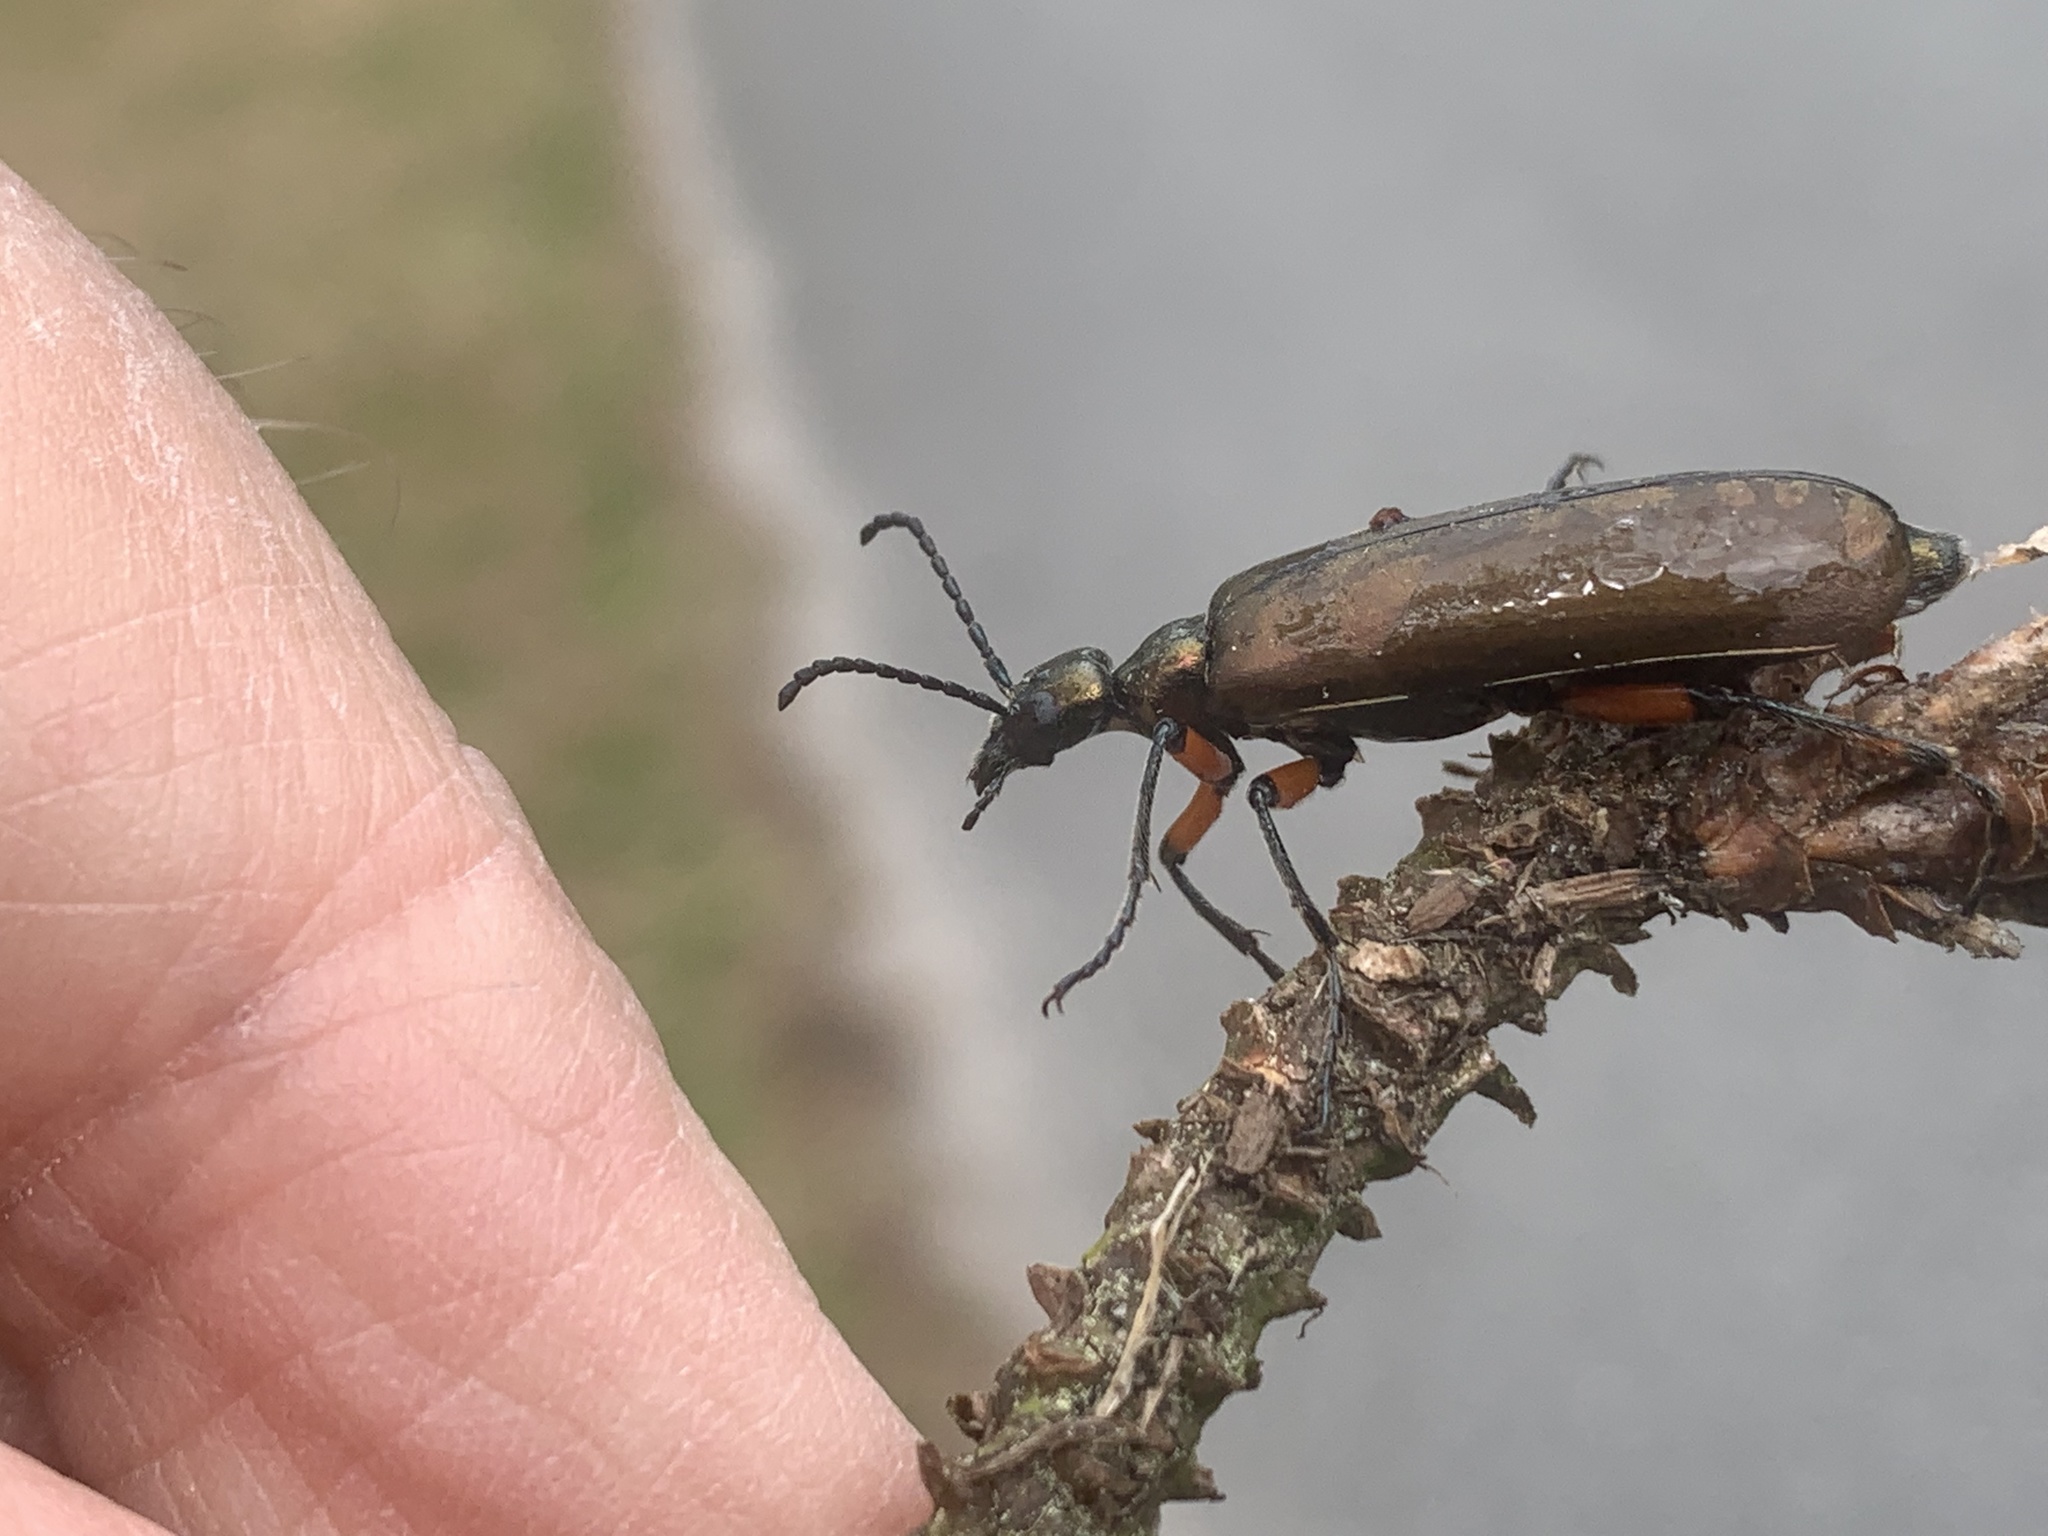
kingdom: Animalia
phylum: Arthropoda
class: Insecta
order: Coleoptera
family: Meloidae
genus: Lytta
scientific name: Lytta polita
